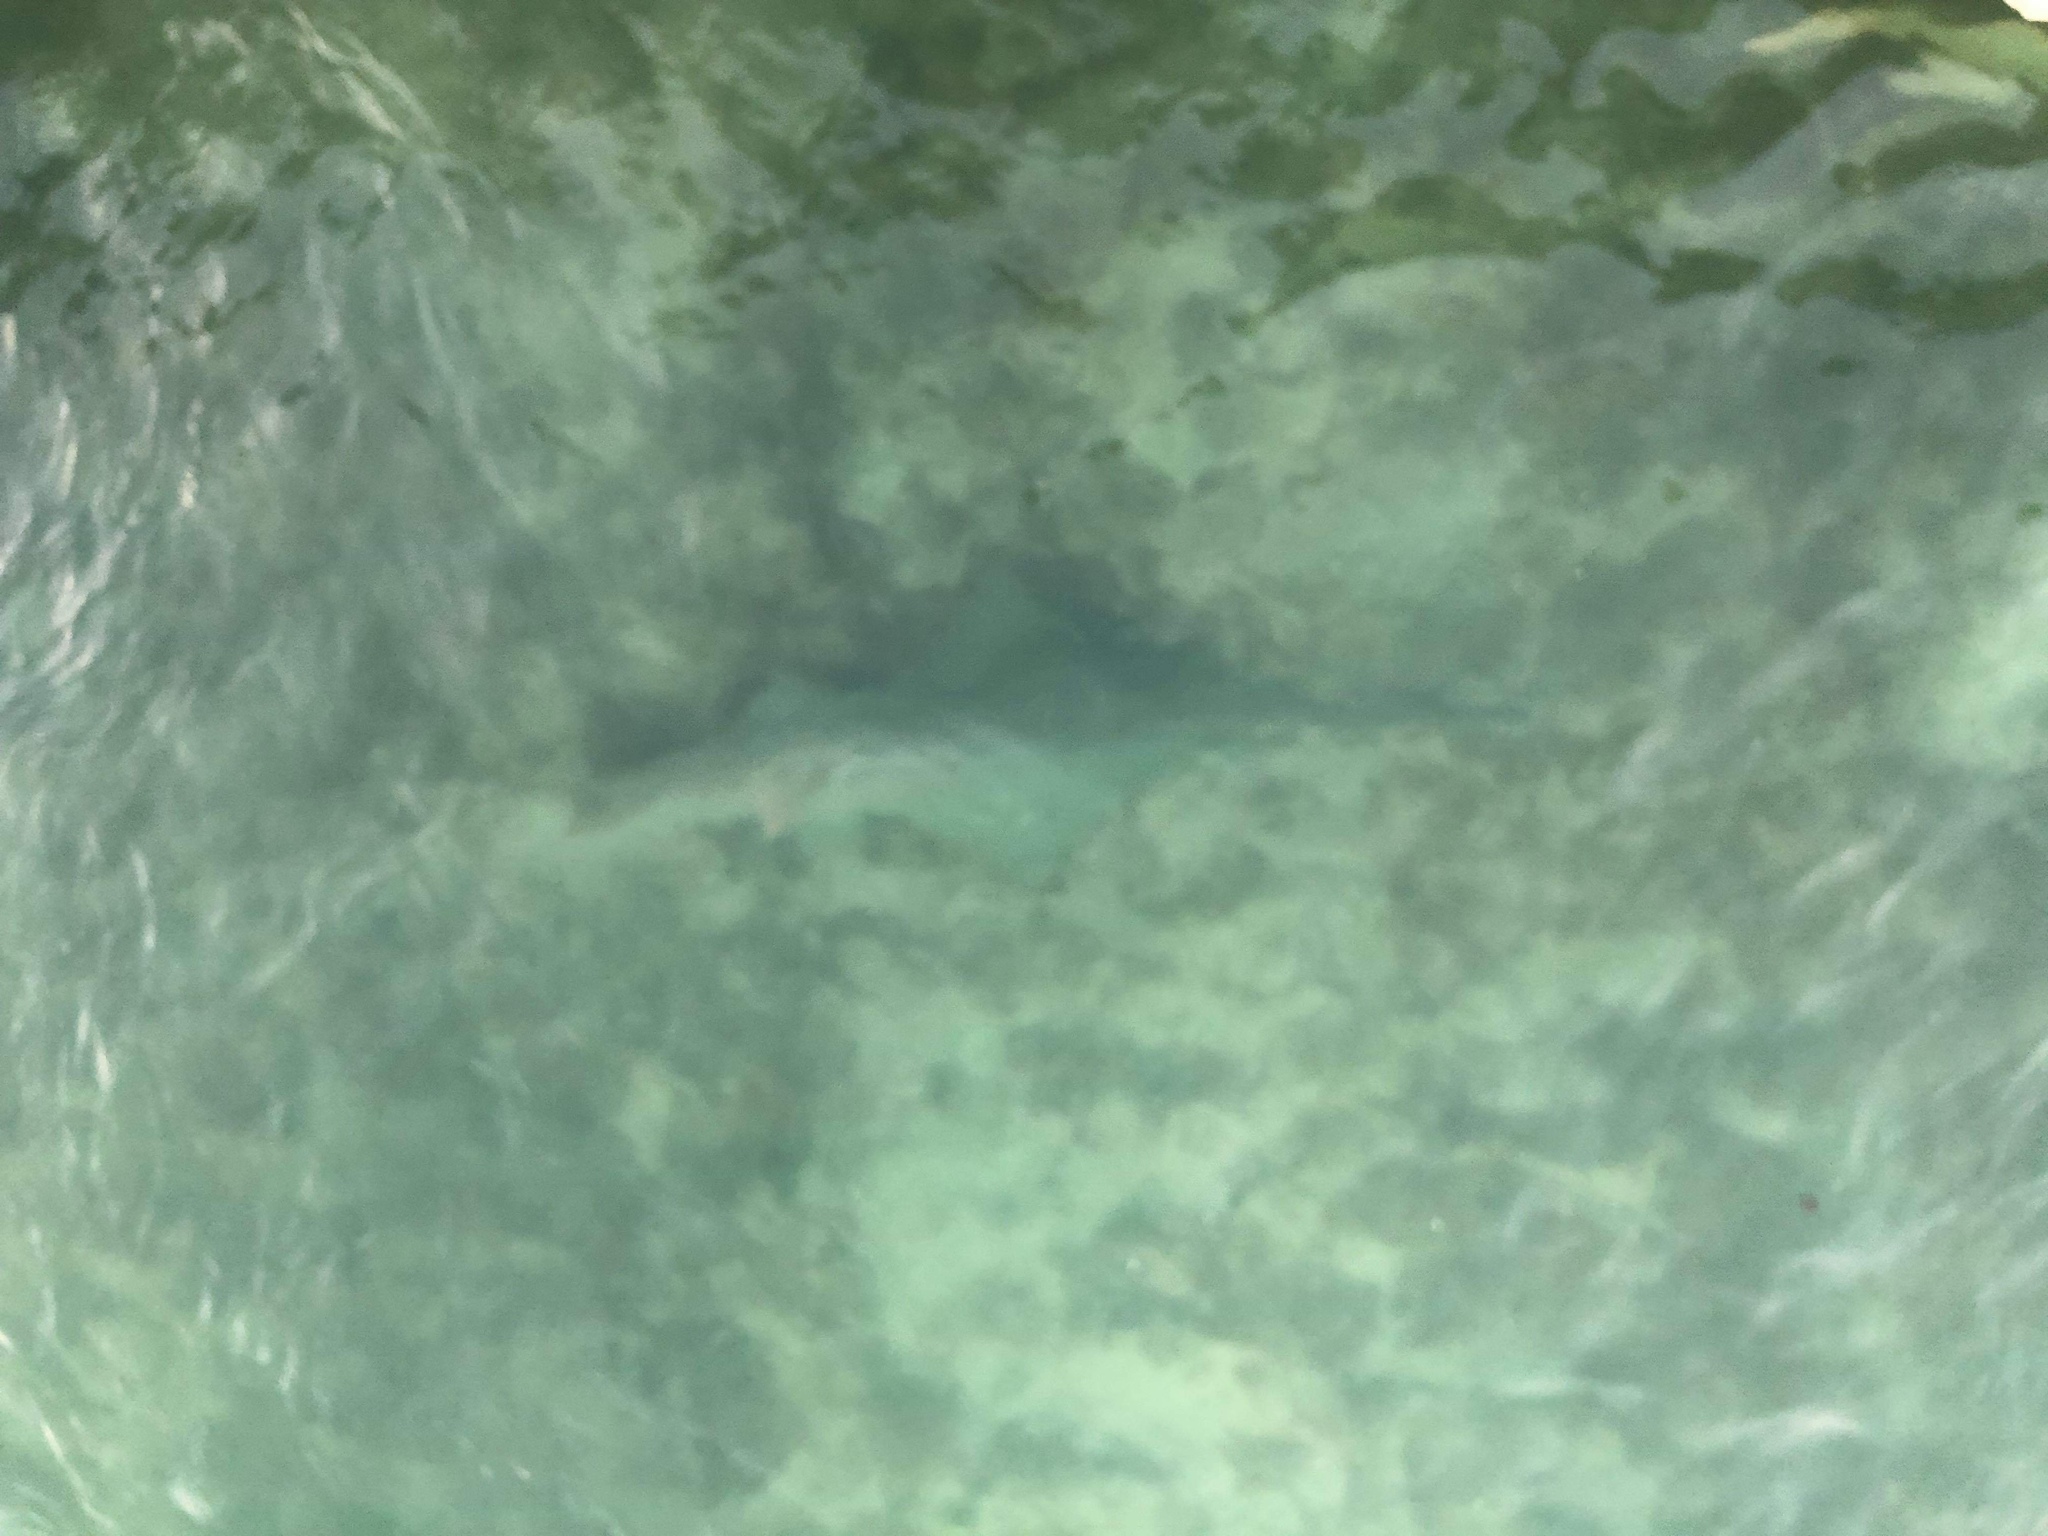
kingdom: Animalia
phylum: Chordata
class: Elasmobranchii
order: Rhinopristiformes
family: Pristidae
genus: Pristis
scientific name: Pristis pectinata
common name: Smalltooth sawfish
